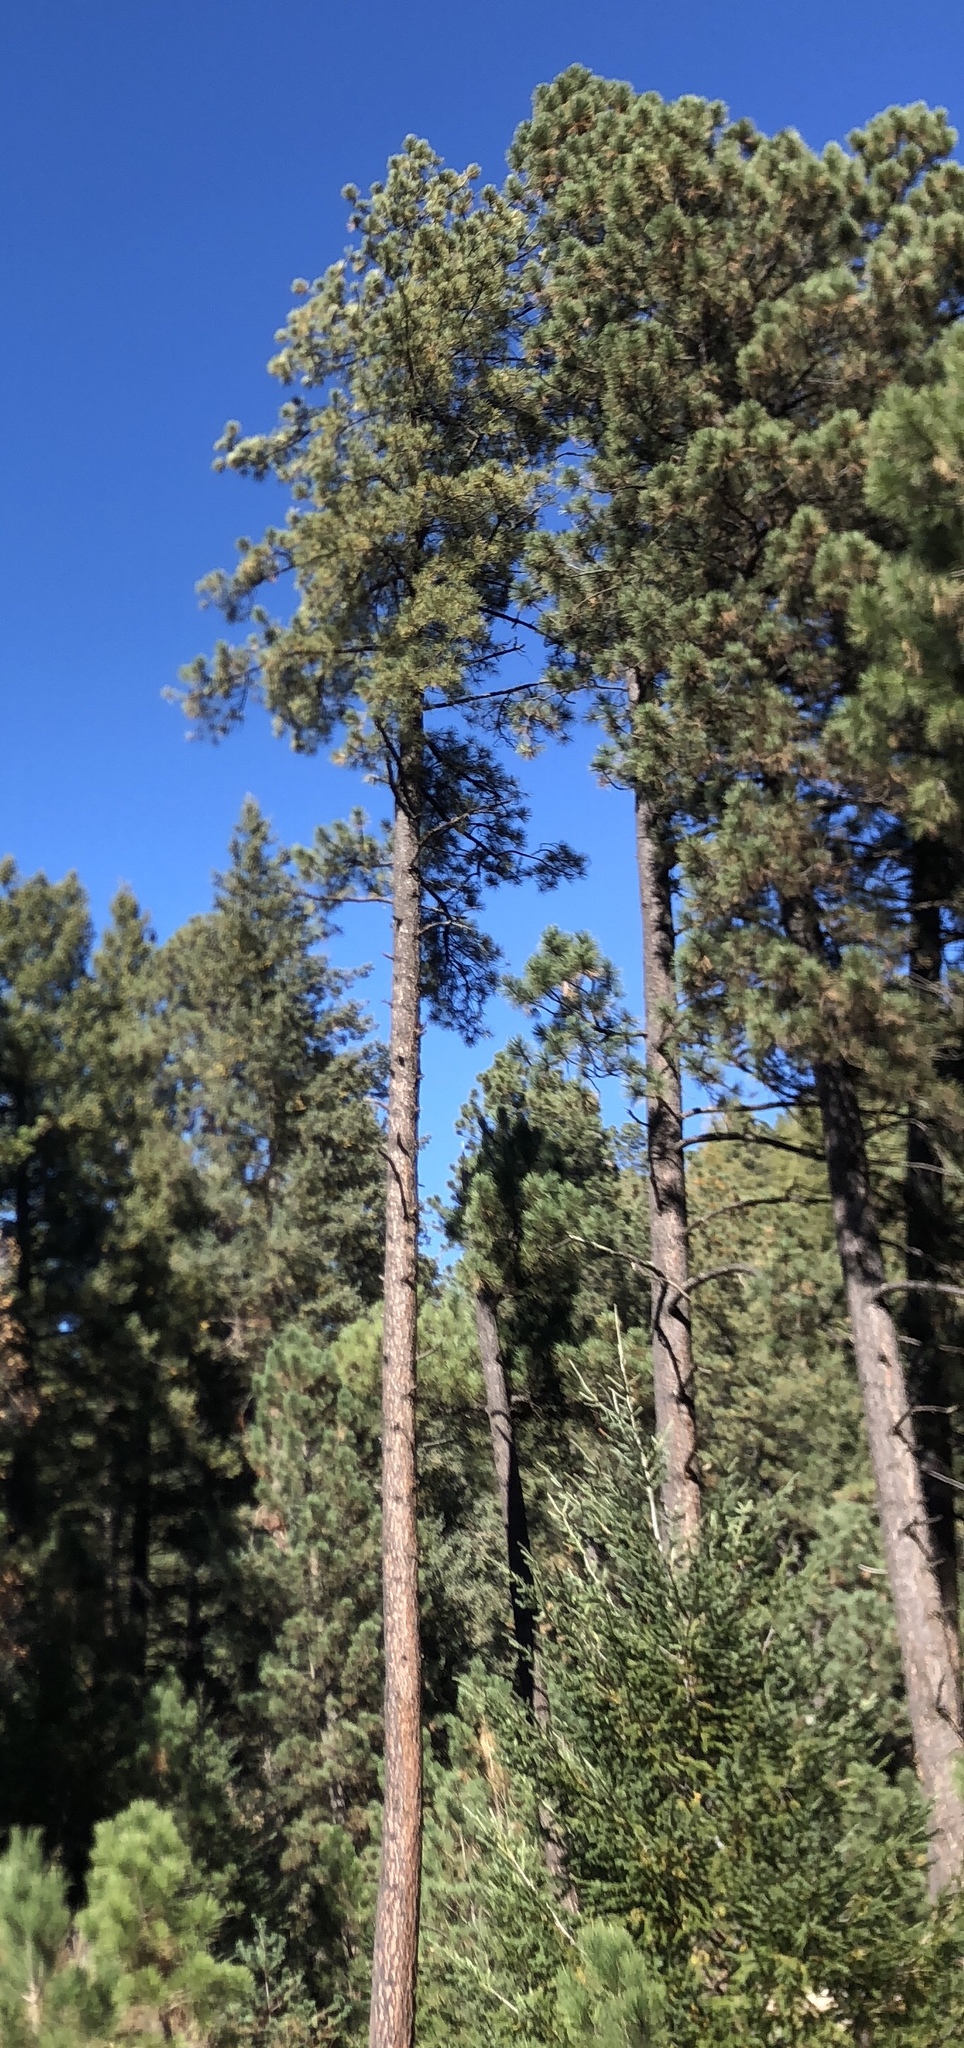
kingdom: Plantae
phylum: Tracheophyta
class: Pinopsida
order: Pinales
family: Pinaceae
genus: Pinus
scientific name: Pinus ponderosa
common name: Western yellow-pine
